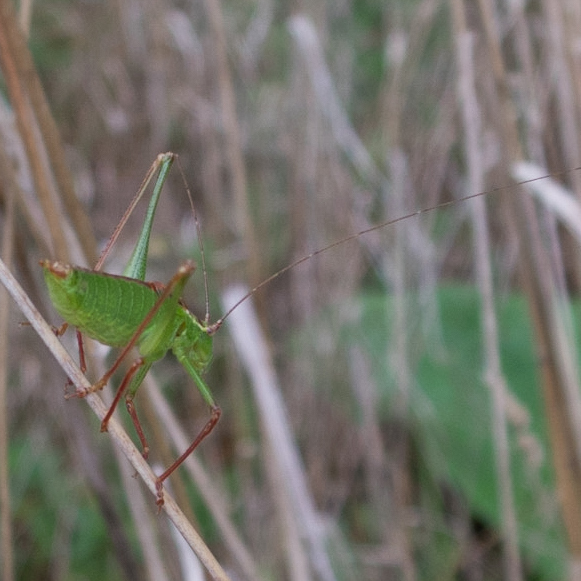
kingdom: Animalia
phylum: Arthropoda
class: Insecta
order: Orthoptera
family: Tettigoniidae
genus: Leptophyes
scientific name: Leptophyes punctatissima
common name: Speckled bush-cricket
